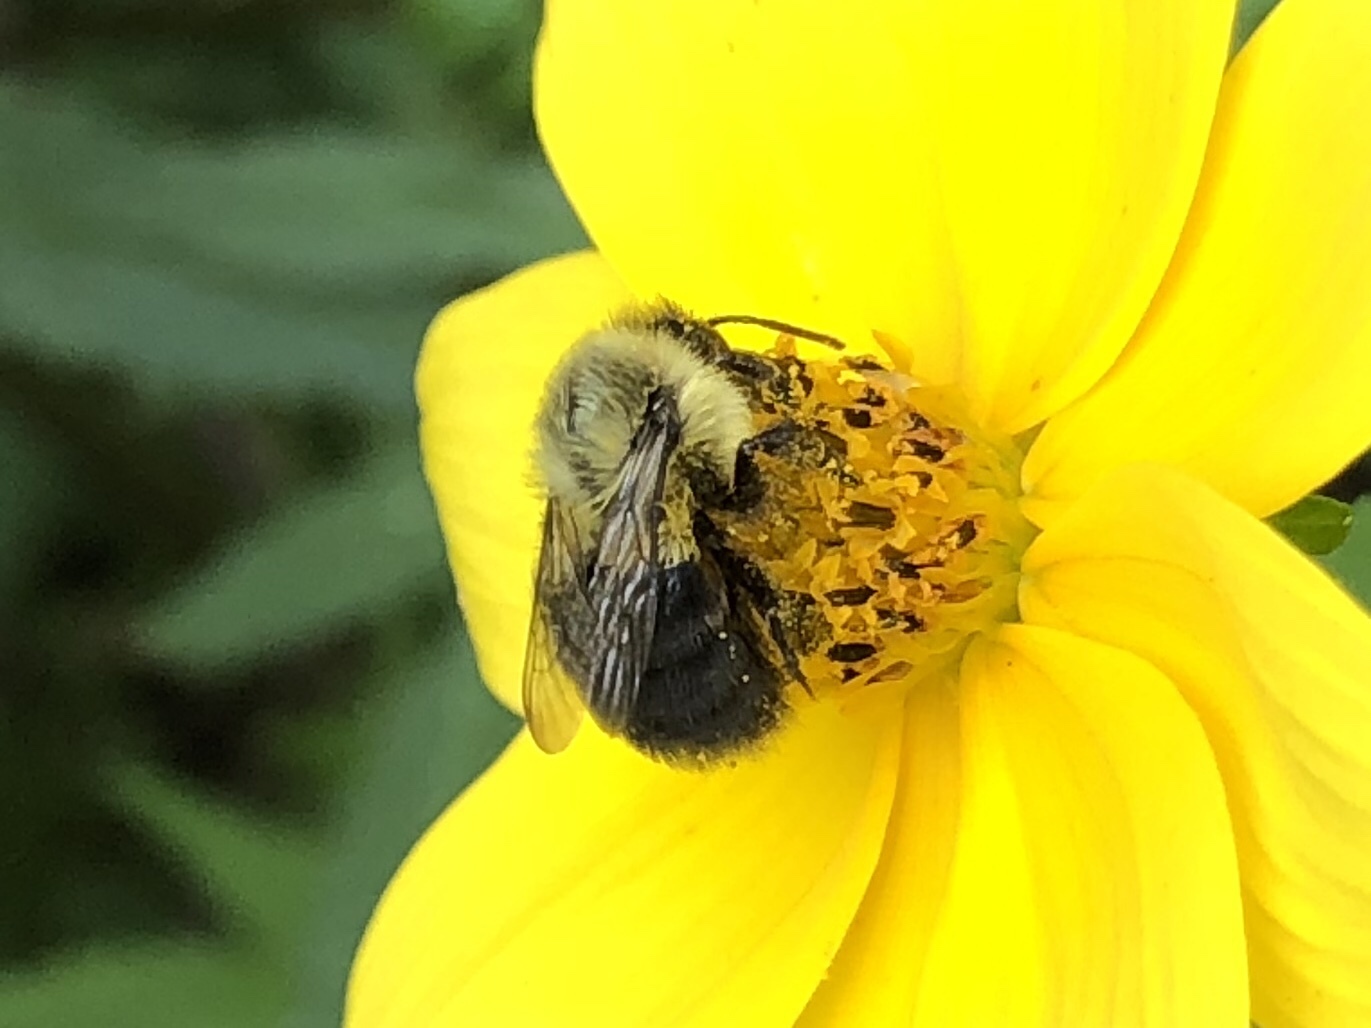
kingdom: Animalia
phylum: Arthropoda
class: Insecta
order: Hymenoptera
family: Apidae
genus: Bombus
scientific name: Bombus impatiens
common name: Common eastern bumble bee
